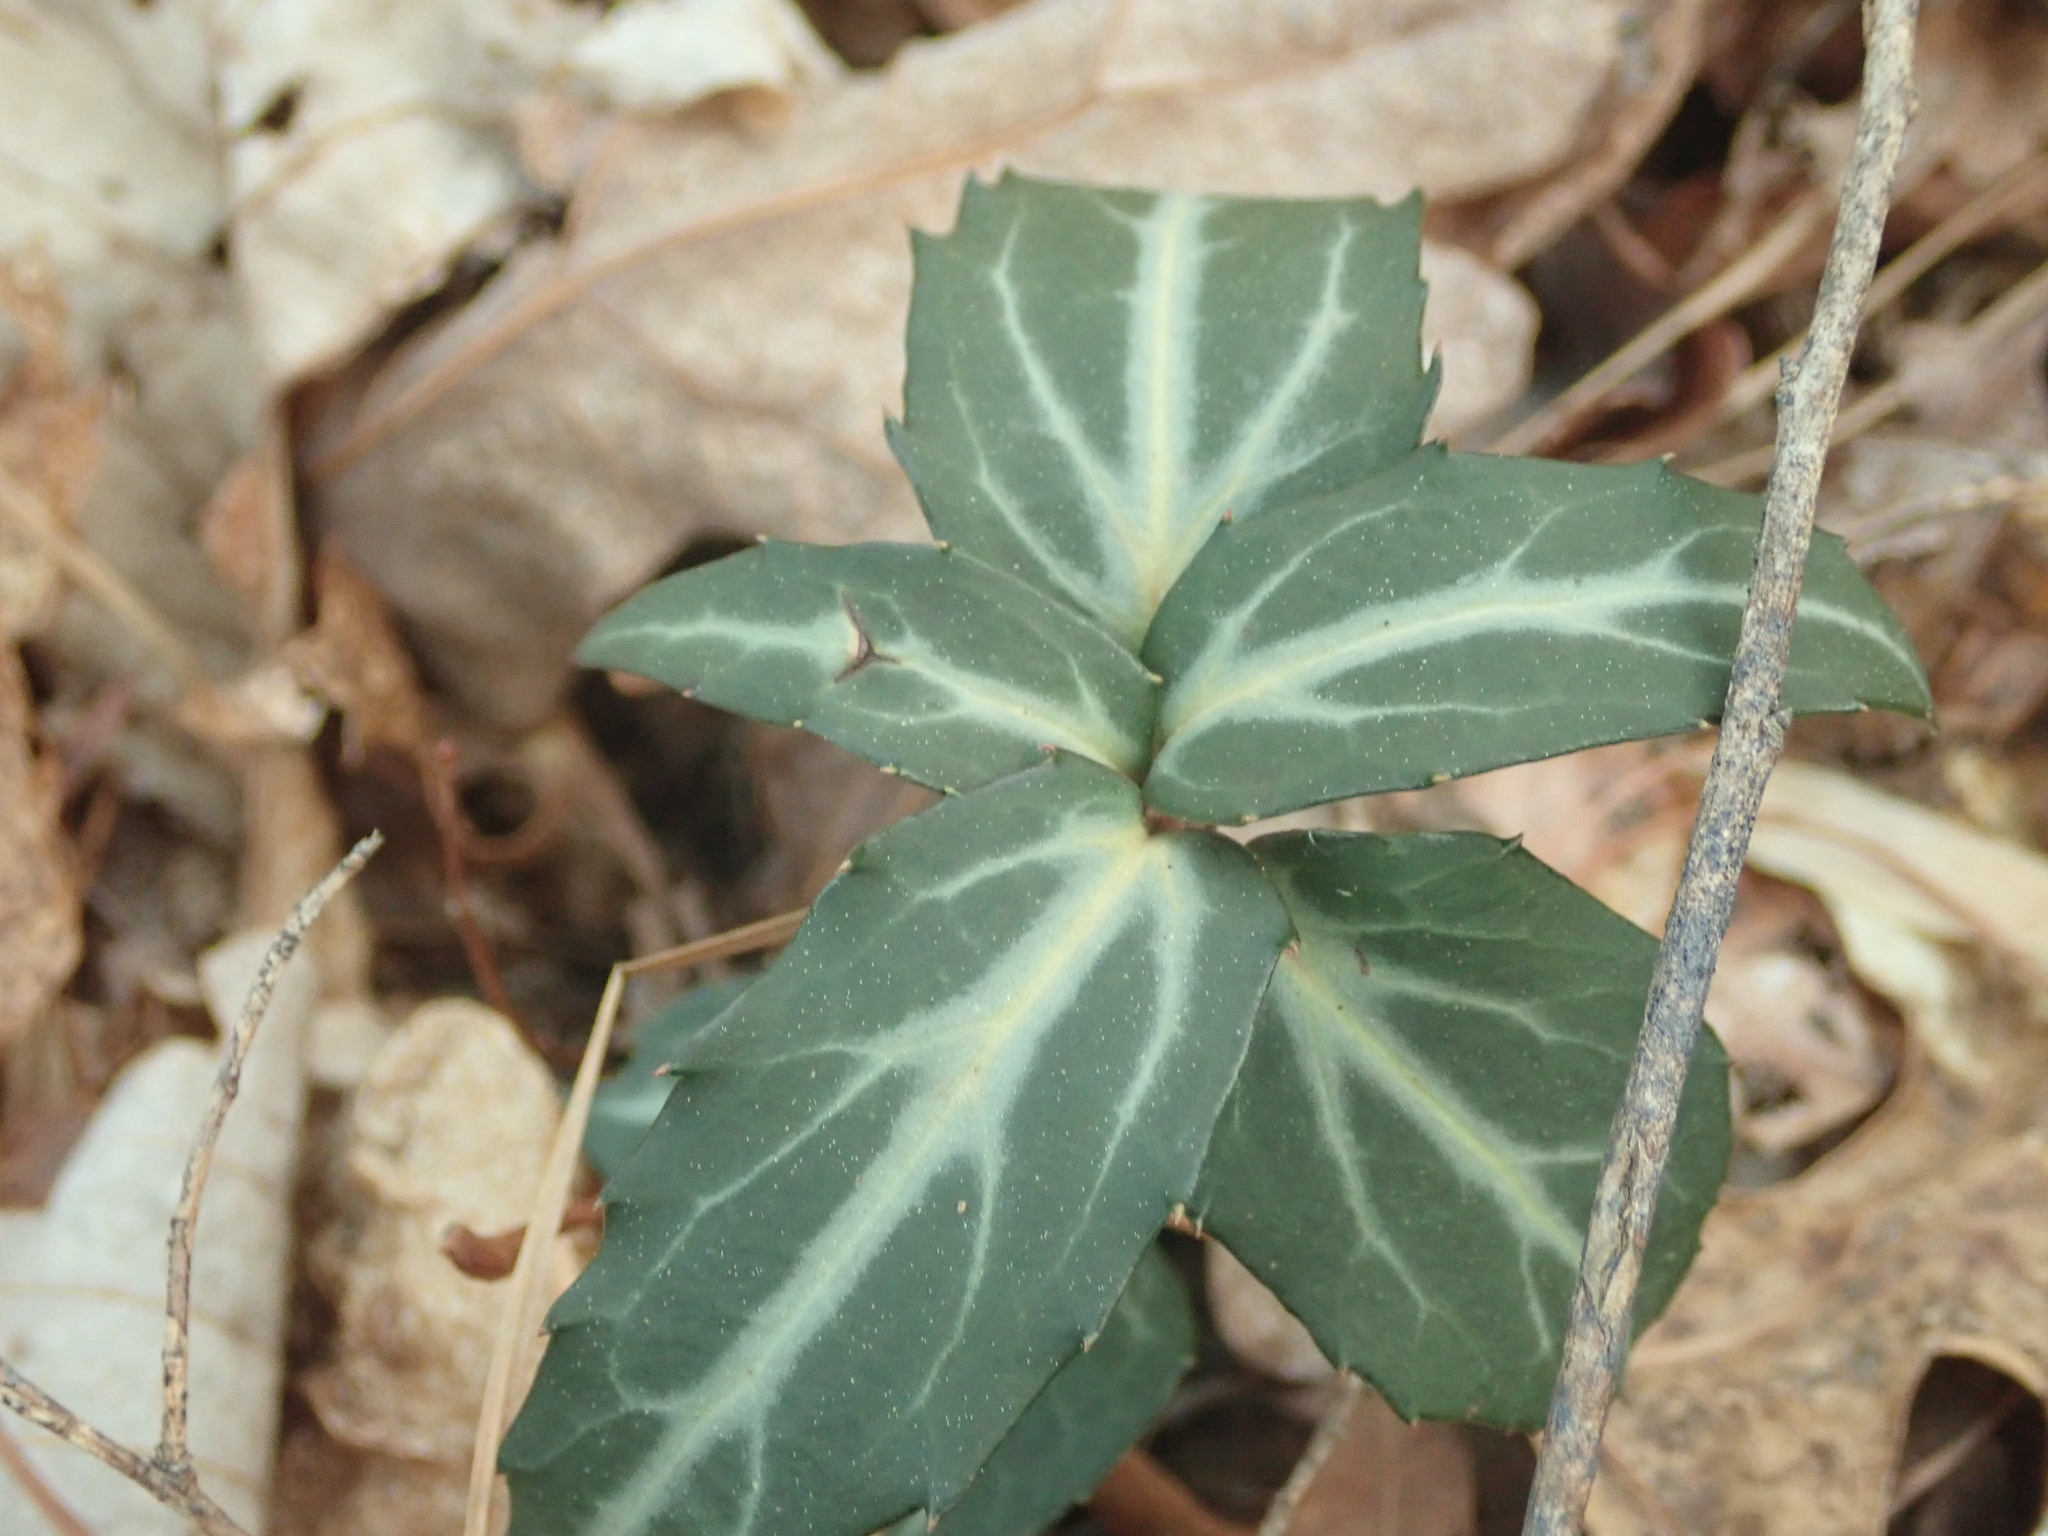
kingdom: Plantae
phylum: Tracheophyta
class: Magnoliopsida
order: Ericales
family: Ericaceae
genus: Chimaphila
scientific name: Chimaphila maculata
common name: Spotted pipsissewa
